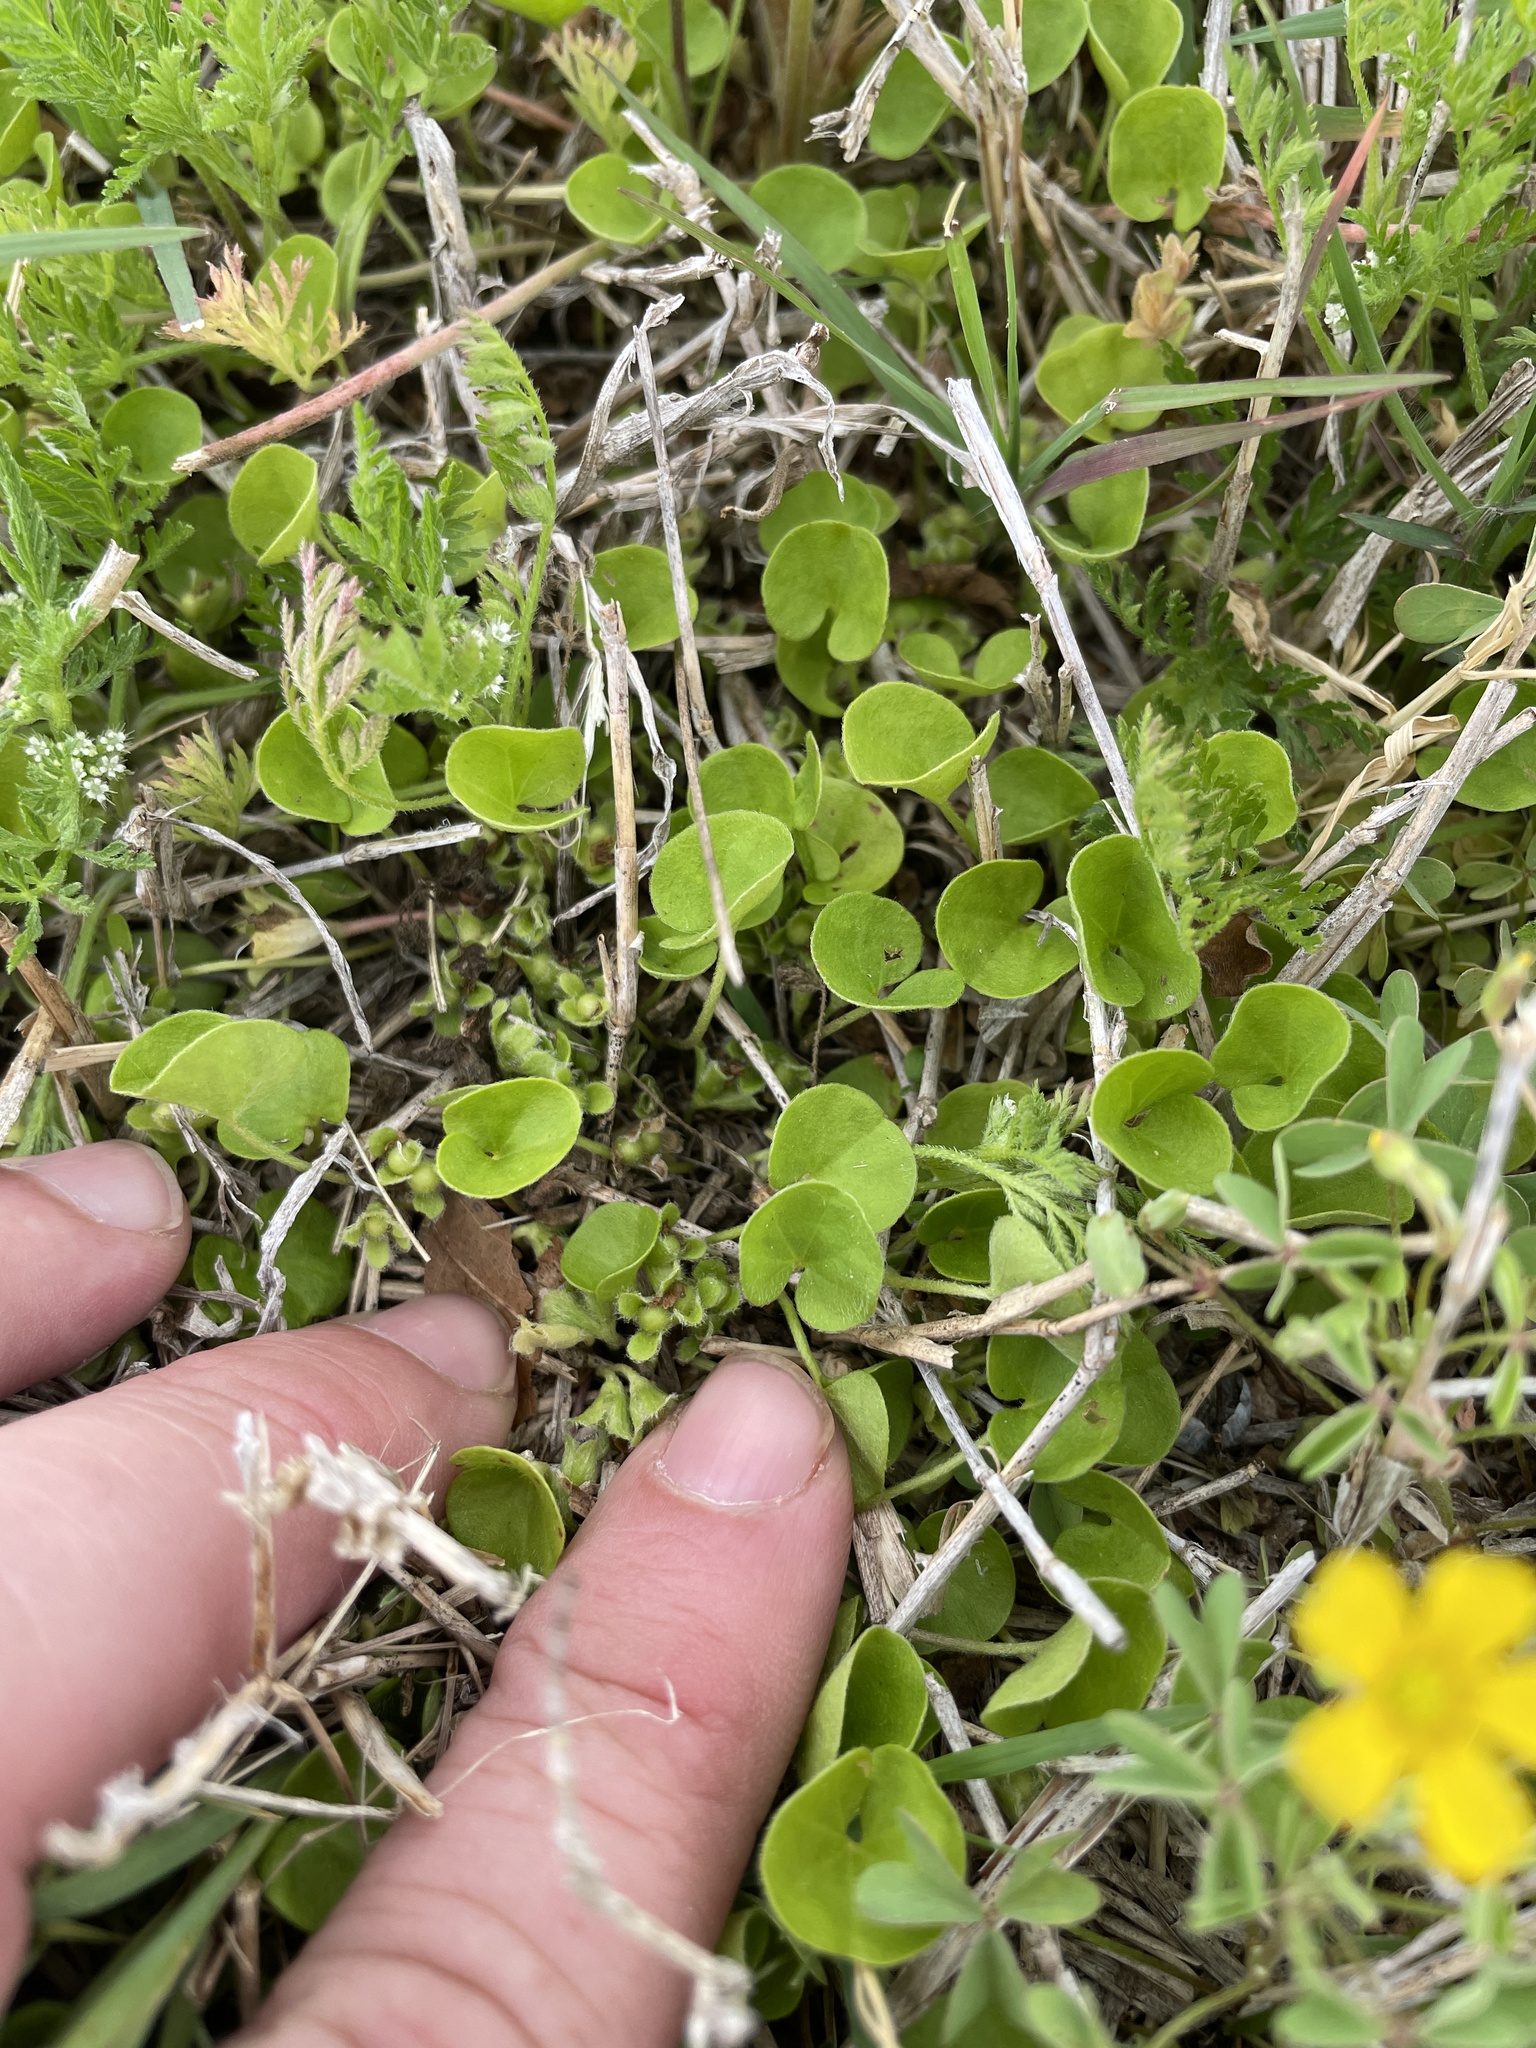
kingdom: Plantae
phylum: Tracheophyta
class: Magnoliopsida
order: Solanales
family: Convolvulaceae
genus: Dichondra
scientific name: Dichondra carolinensis
